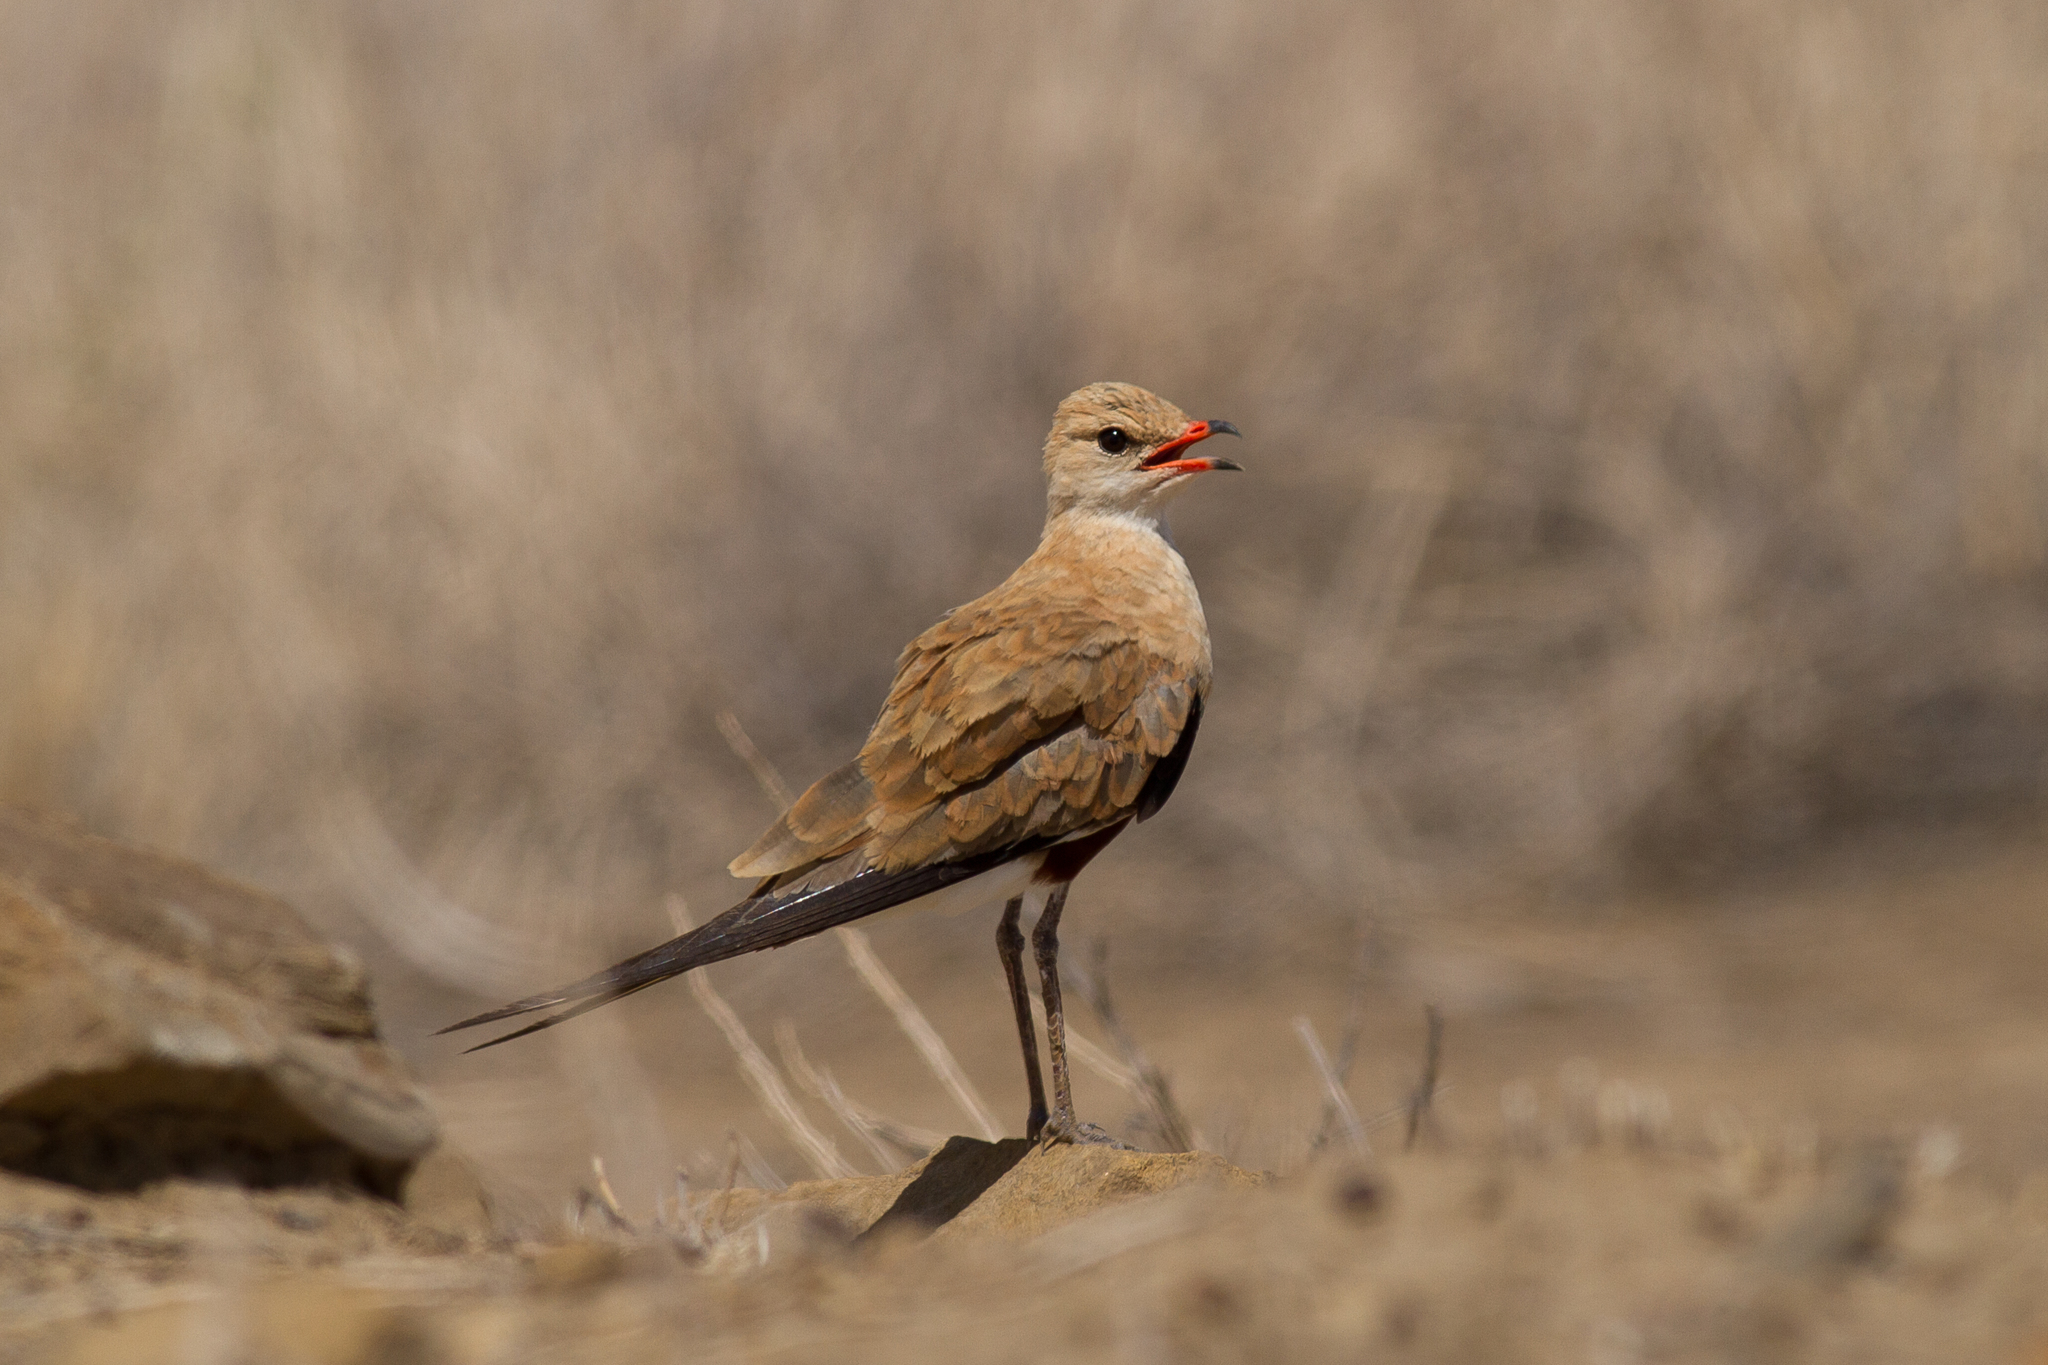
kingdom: Animalia
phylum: Chordata
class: Aves
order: Charadriiformes
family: Glareolidae
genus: Stiltia
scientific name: Stiltia isabella
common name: Australian pratincole
